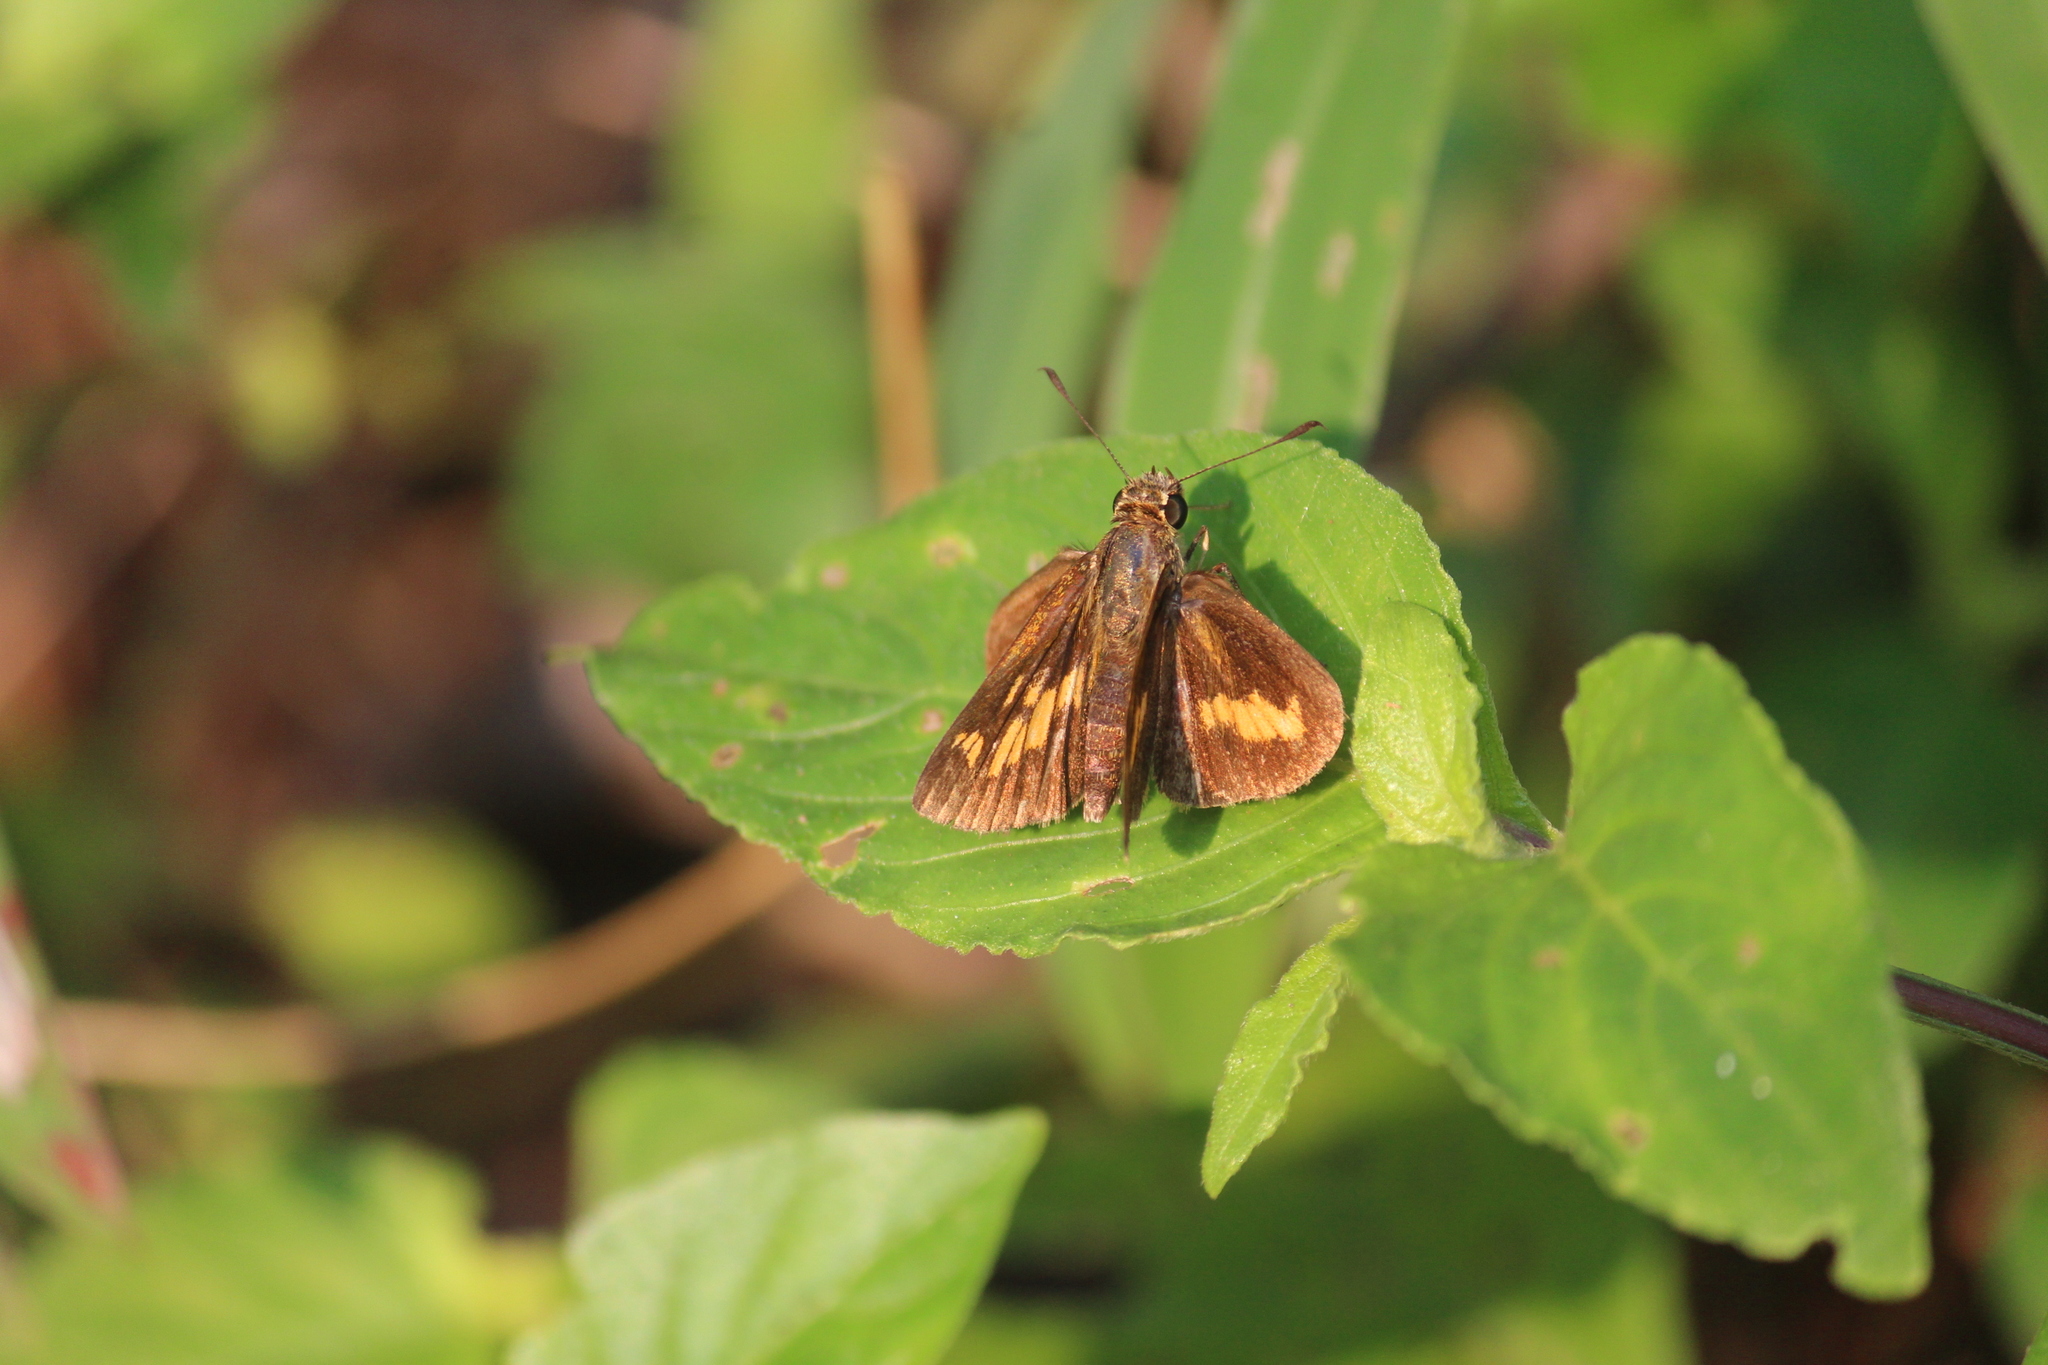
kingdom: Animalia
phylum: Arthropoda
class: Insecta
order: Lepidoptera
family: Hesperiidae
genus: Oriens
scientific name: Oriens goloides
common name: Smaller dartlet
